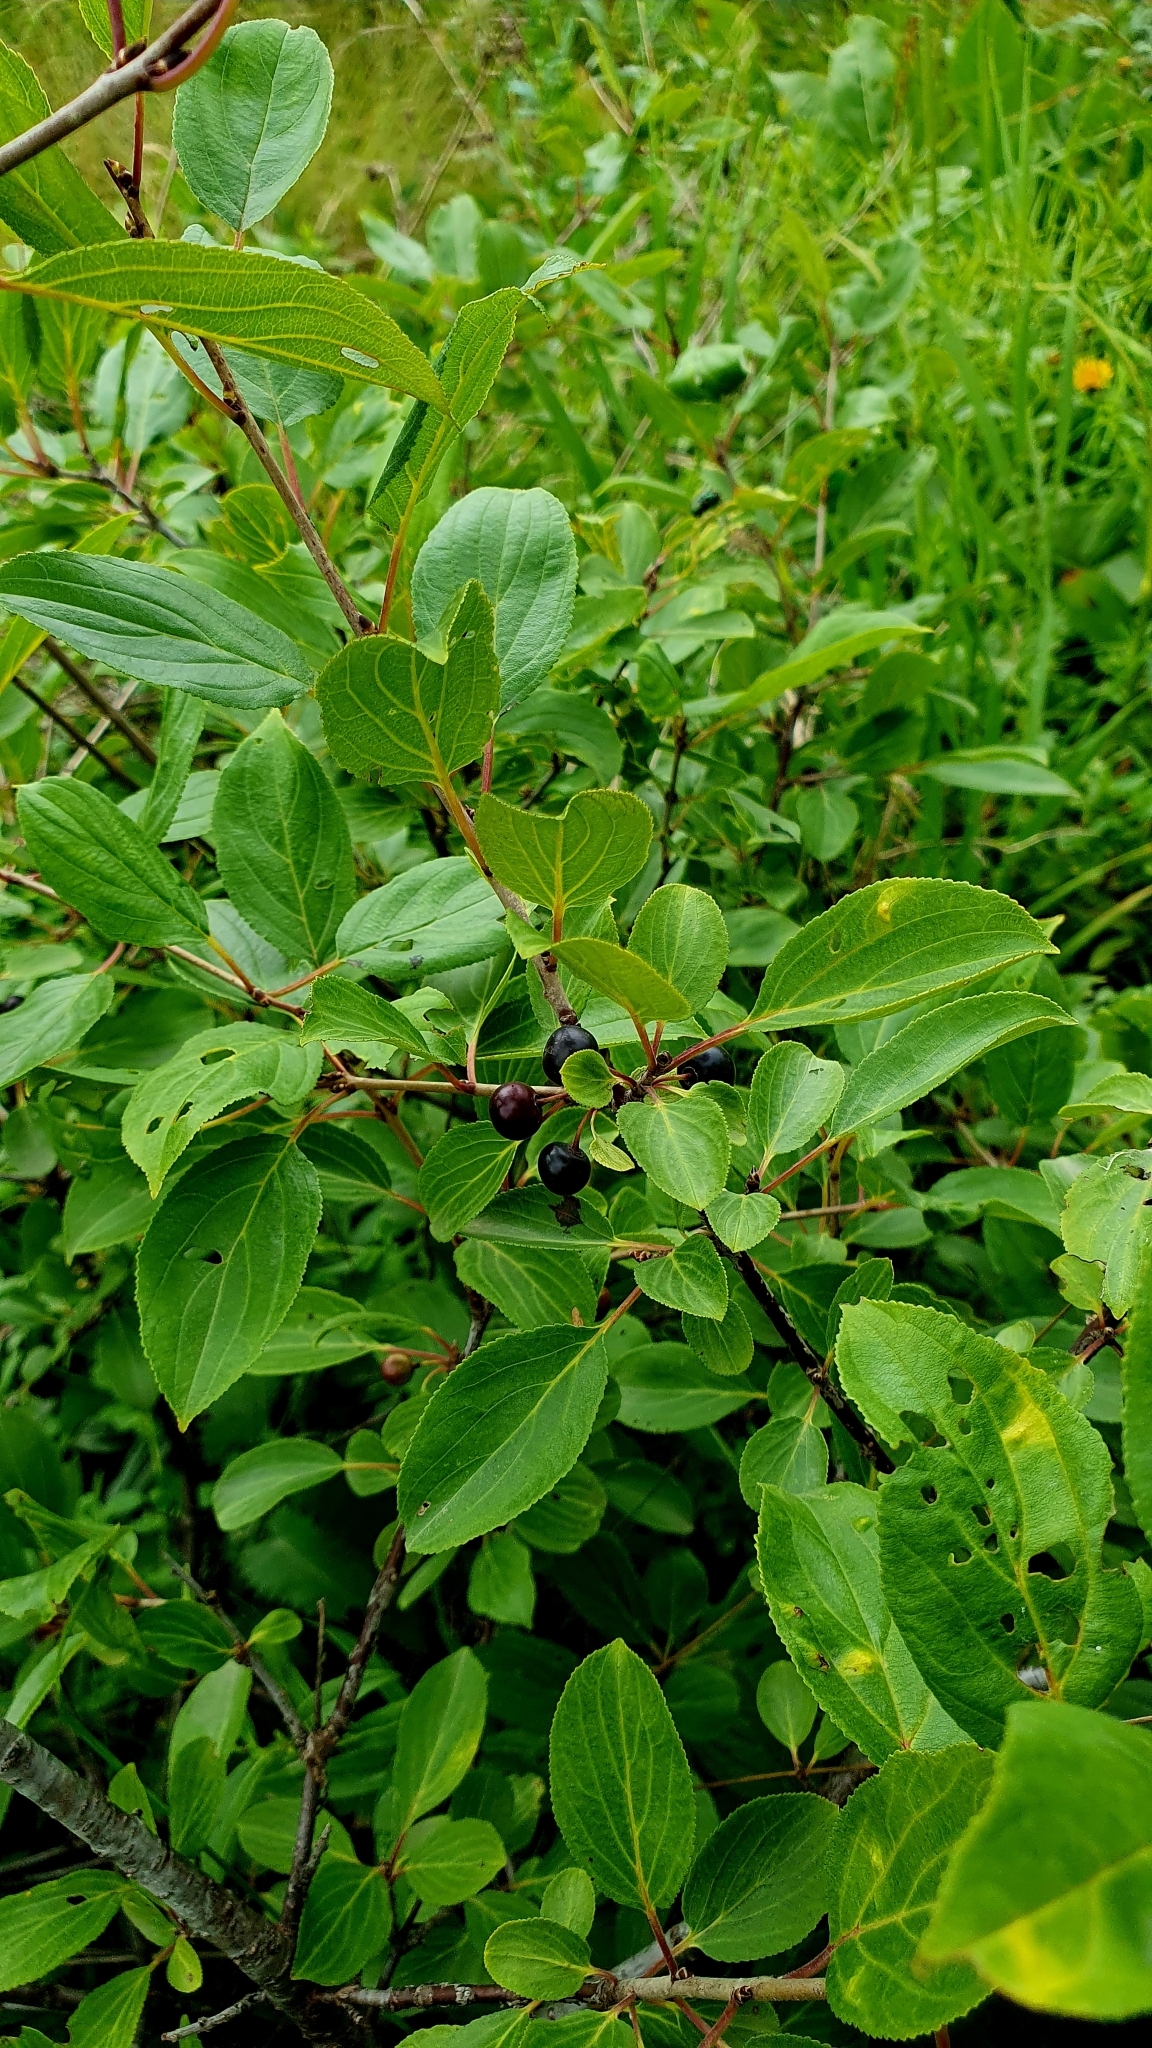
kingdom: Plantae
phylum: Tracheophyta
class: Magnoliopsida
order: Rosales
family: Rhamnaceae
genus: Rhamnus
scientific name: Rhamnus cathartica
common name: Common buckthorn
